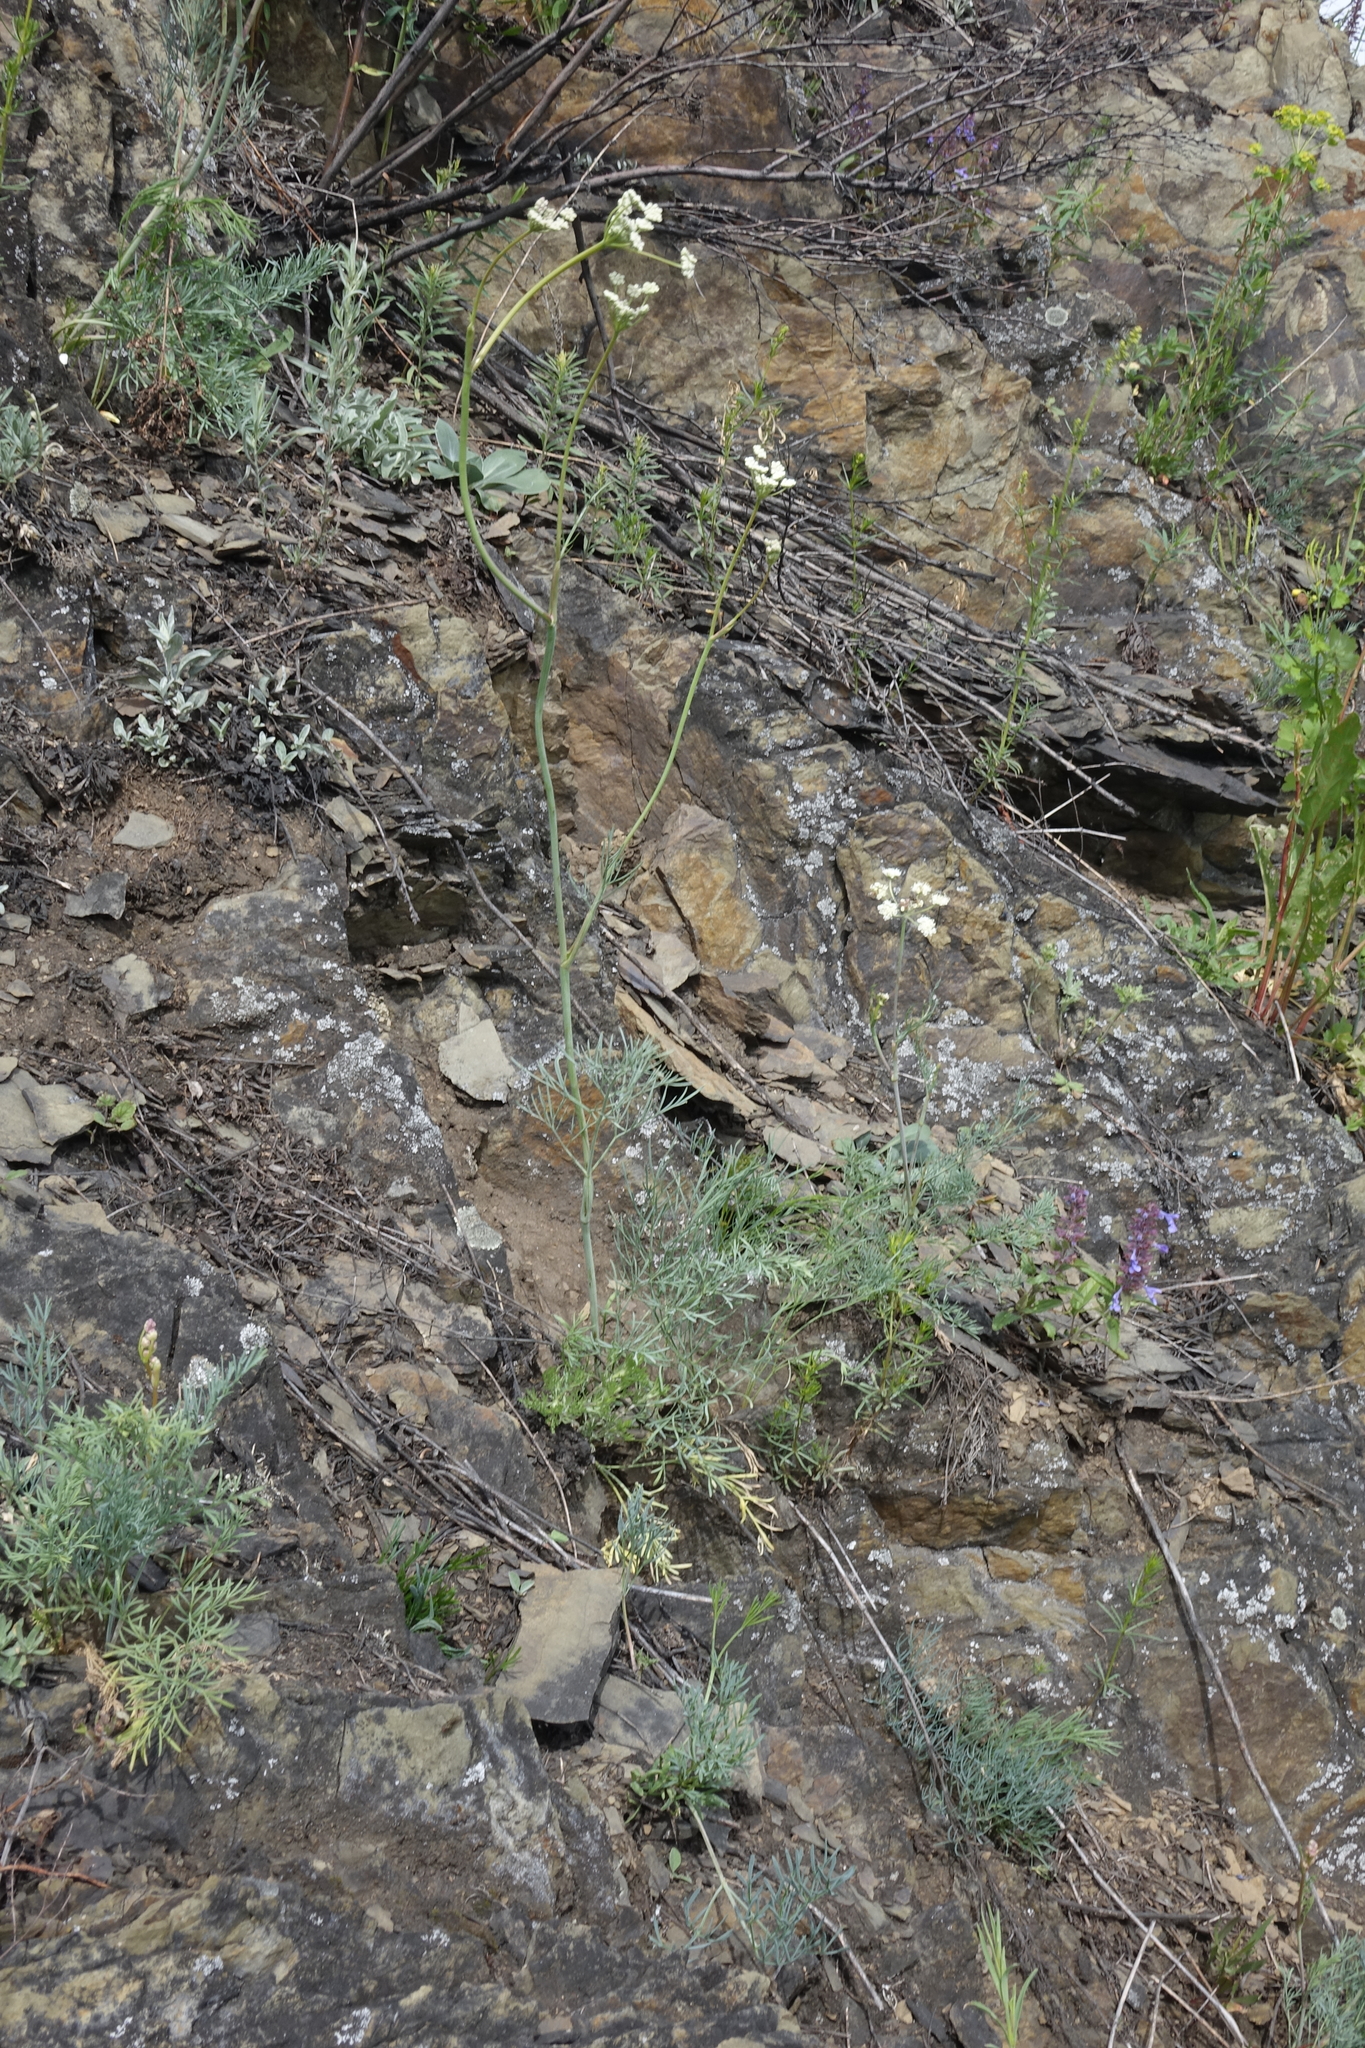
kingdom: Plantae
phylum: Tracheophyta
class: Magnoliopsida
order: Apiales
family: Apiaceae
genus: Seseli
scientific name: Seseli ledebourii
